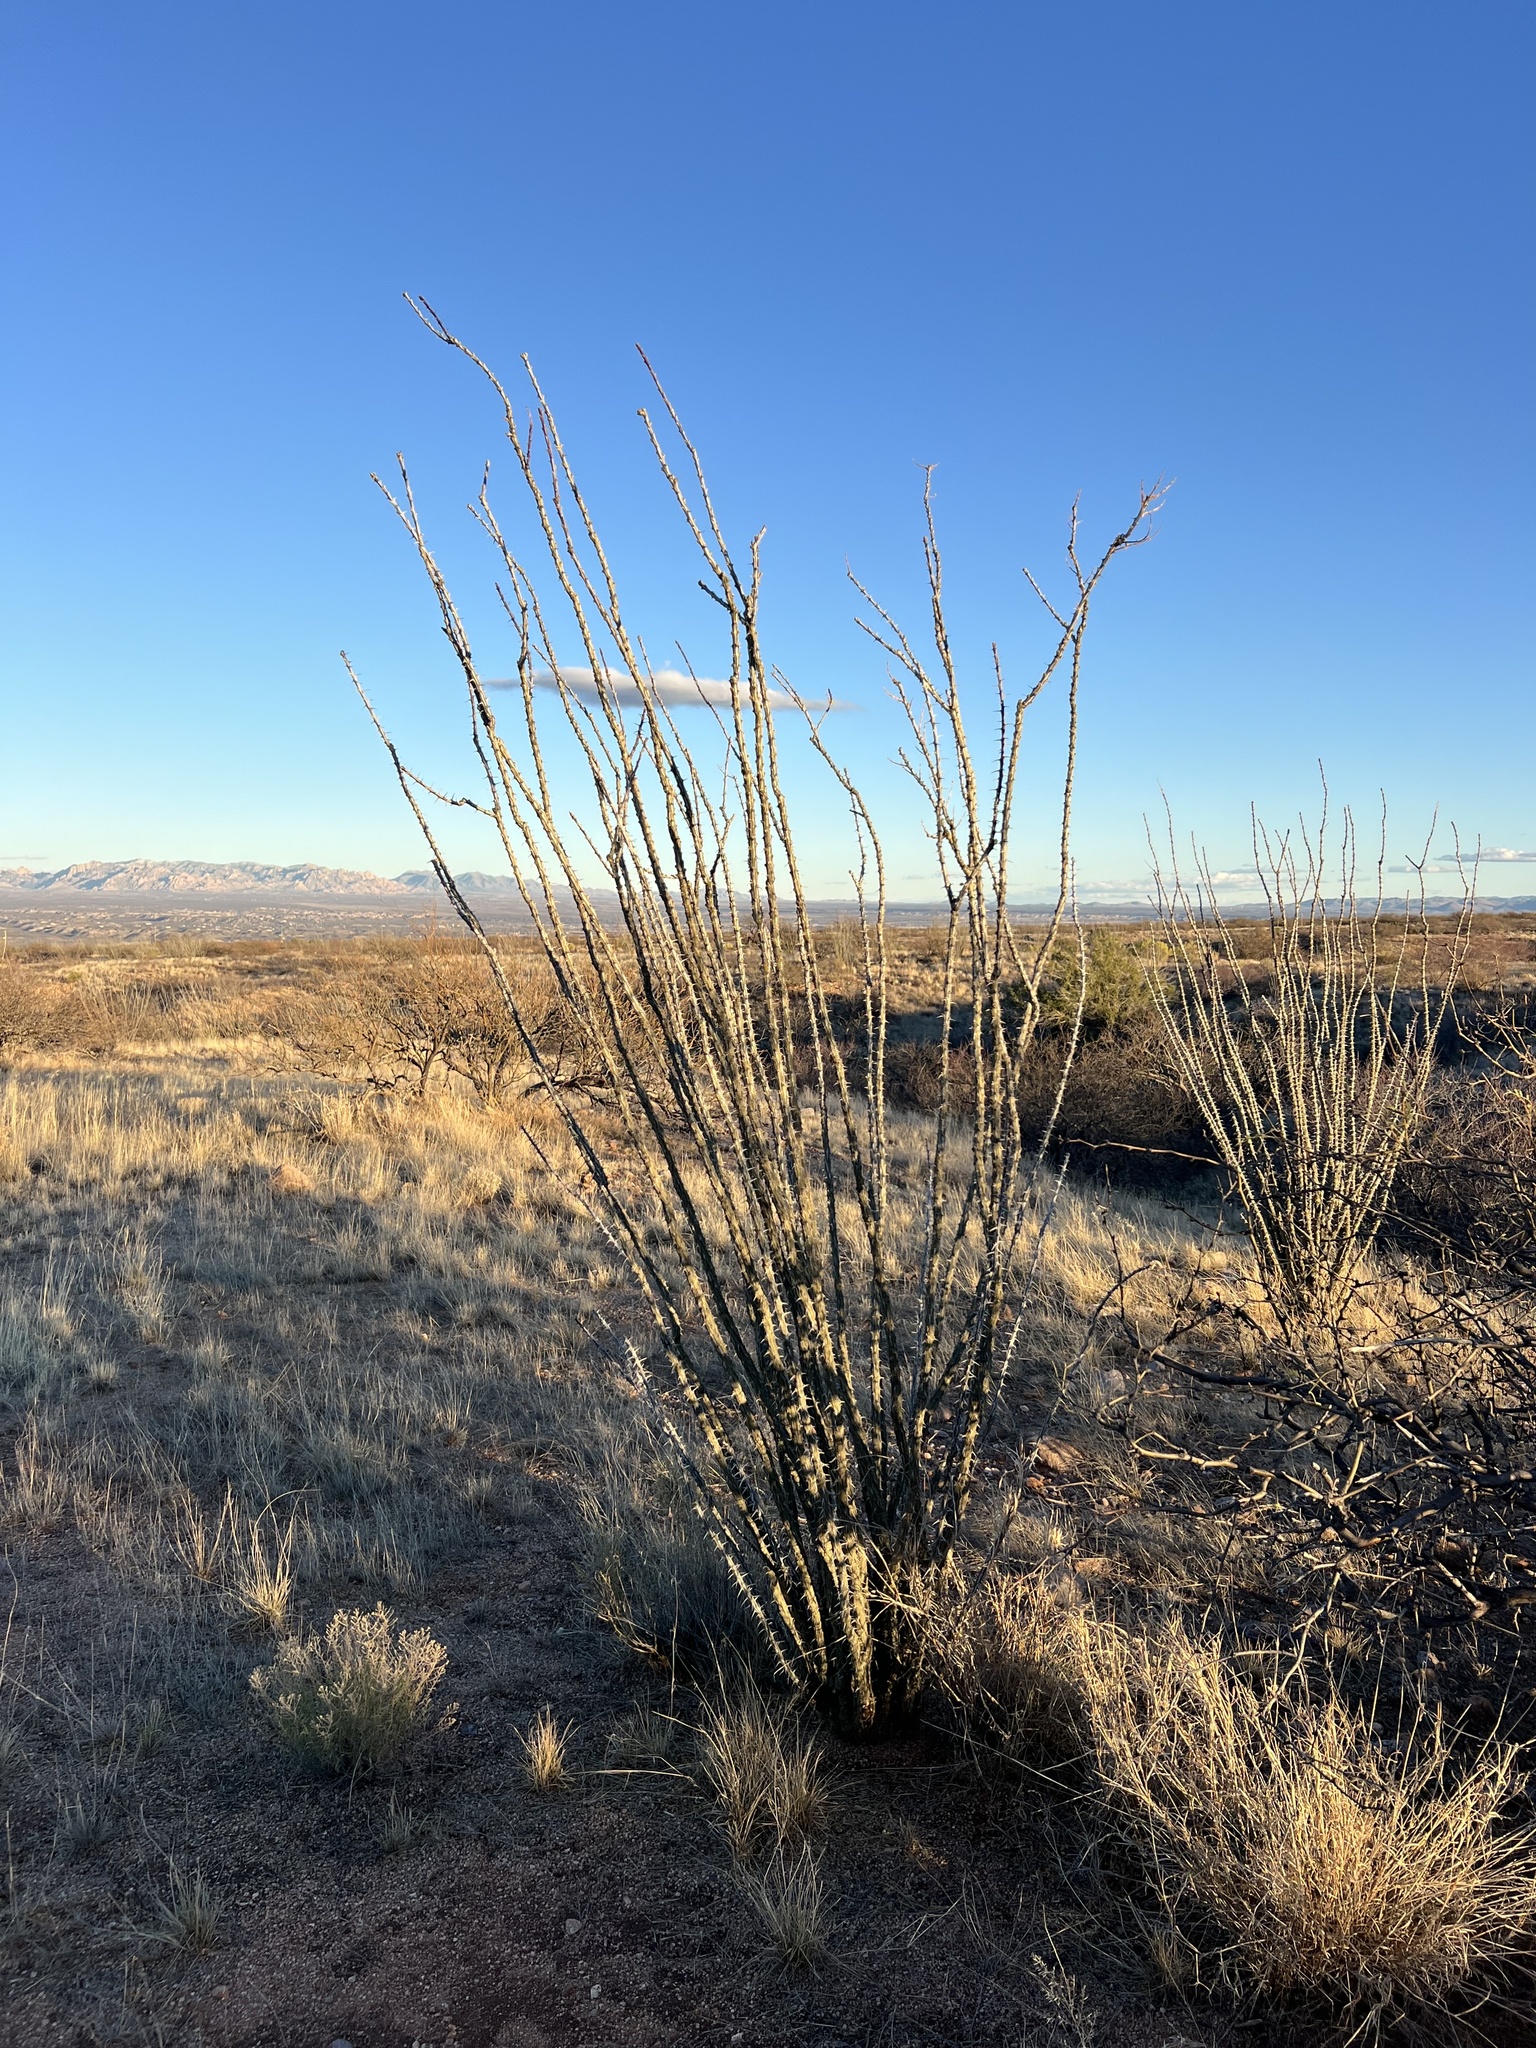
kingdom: Plantae
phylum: Tracheophyta
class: Magnoliopsida
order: Ericales
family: Fouquieriaceae
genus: Fouquieria
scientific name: Fouquieria splendens
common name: Vine-cactus
